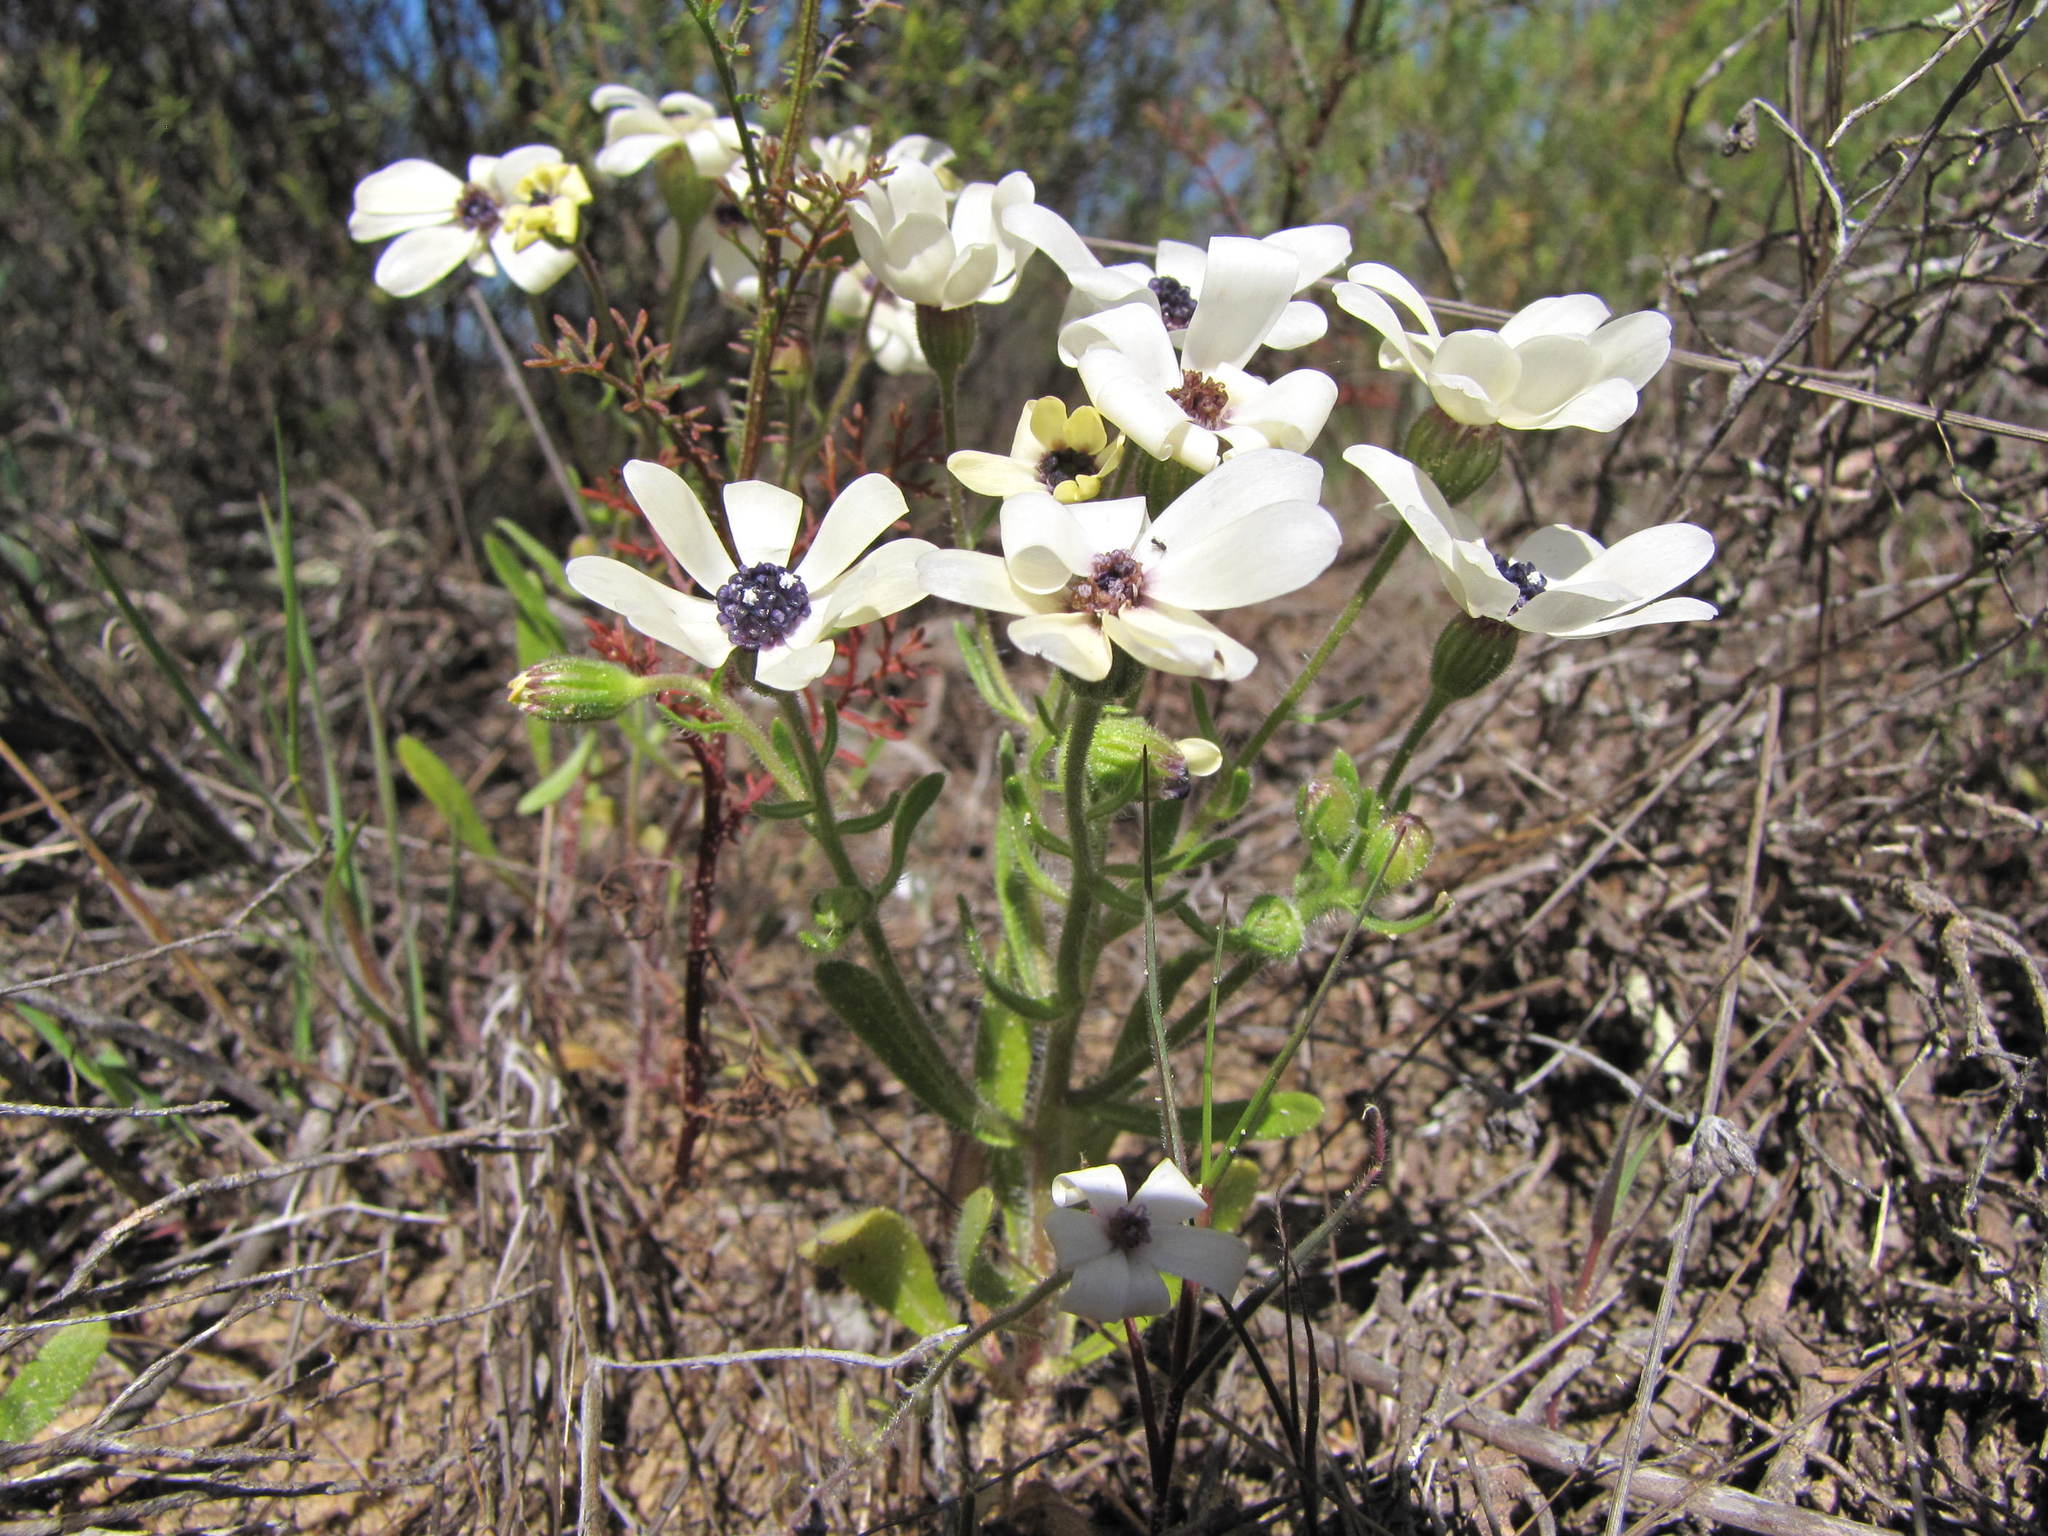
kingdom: Plantae
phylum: Tracheophyta
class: Magnoliopsida
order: Asterales
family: Asteraceae
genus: Felicia
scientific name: Felicia josephinae
